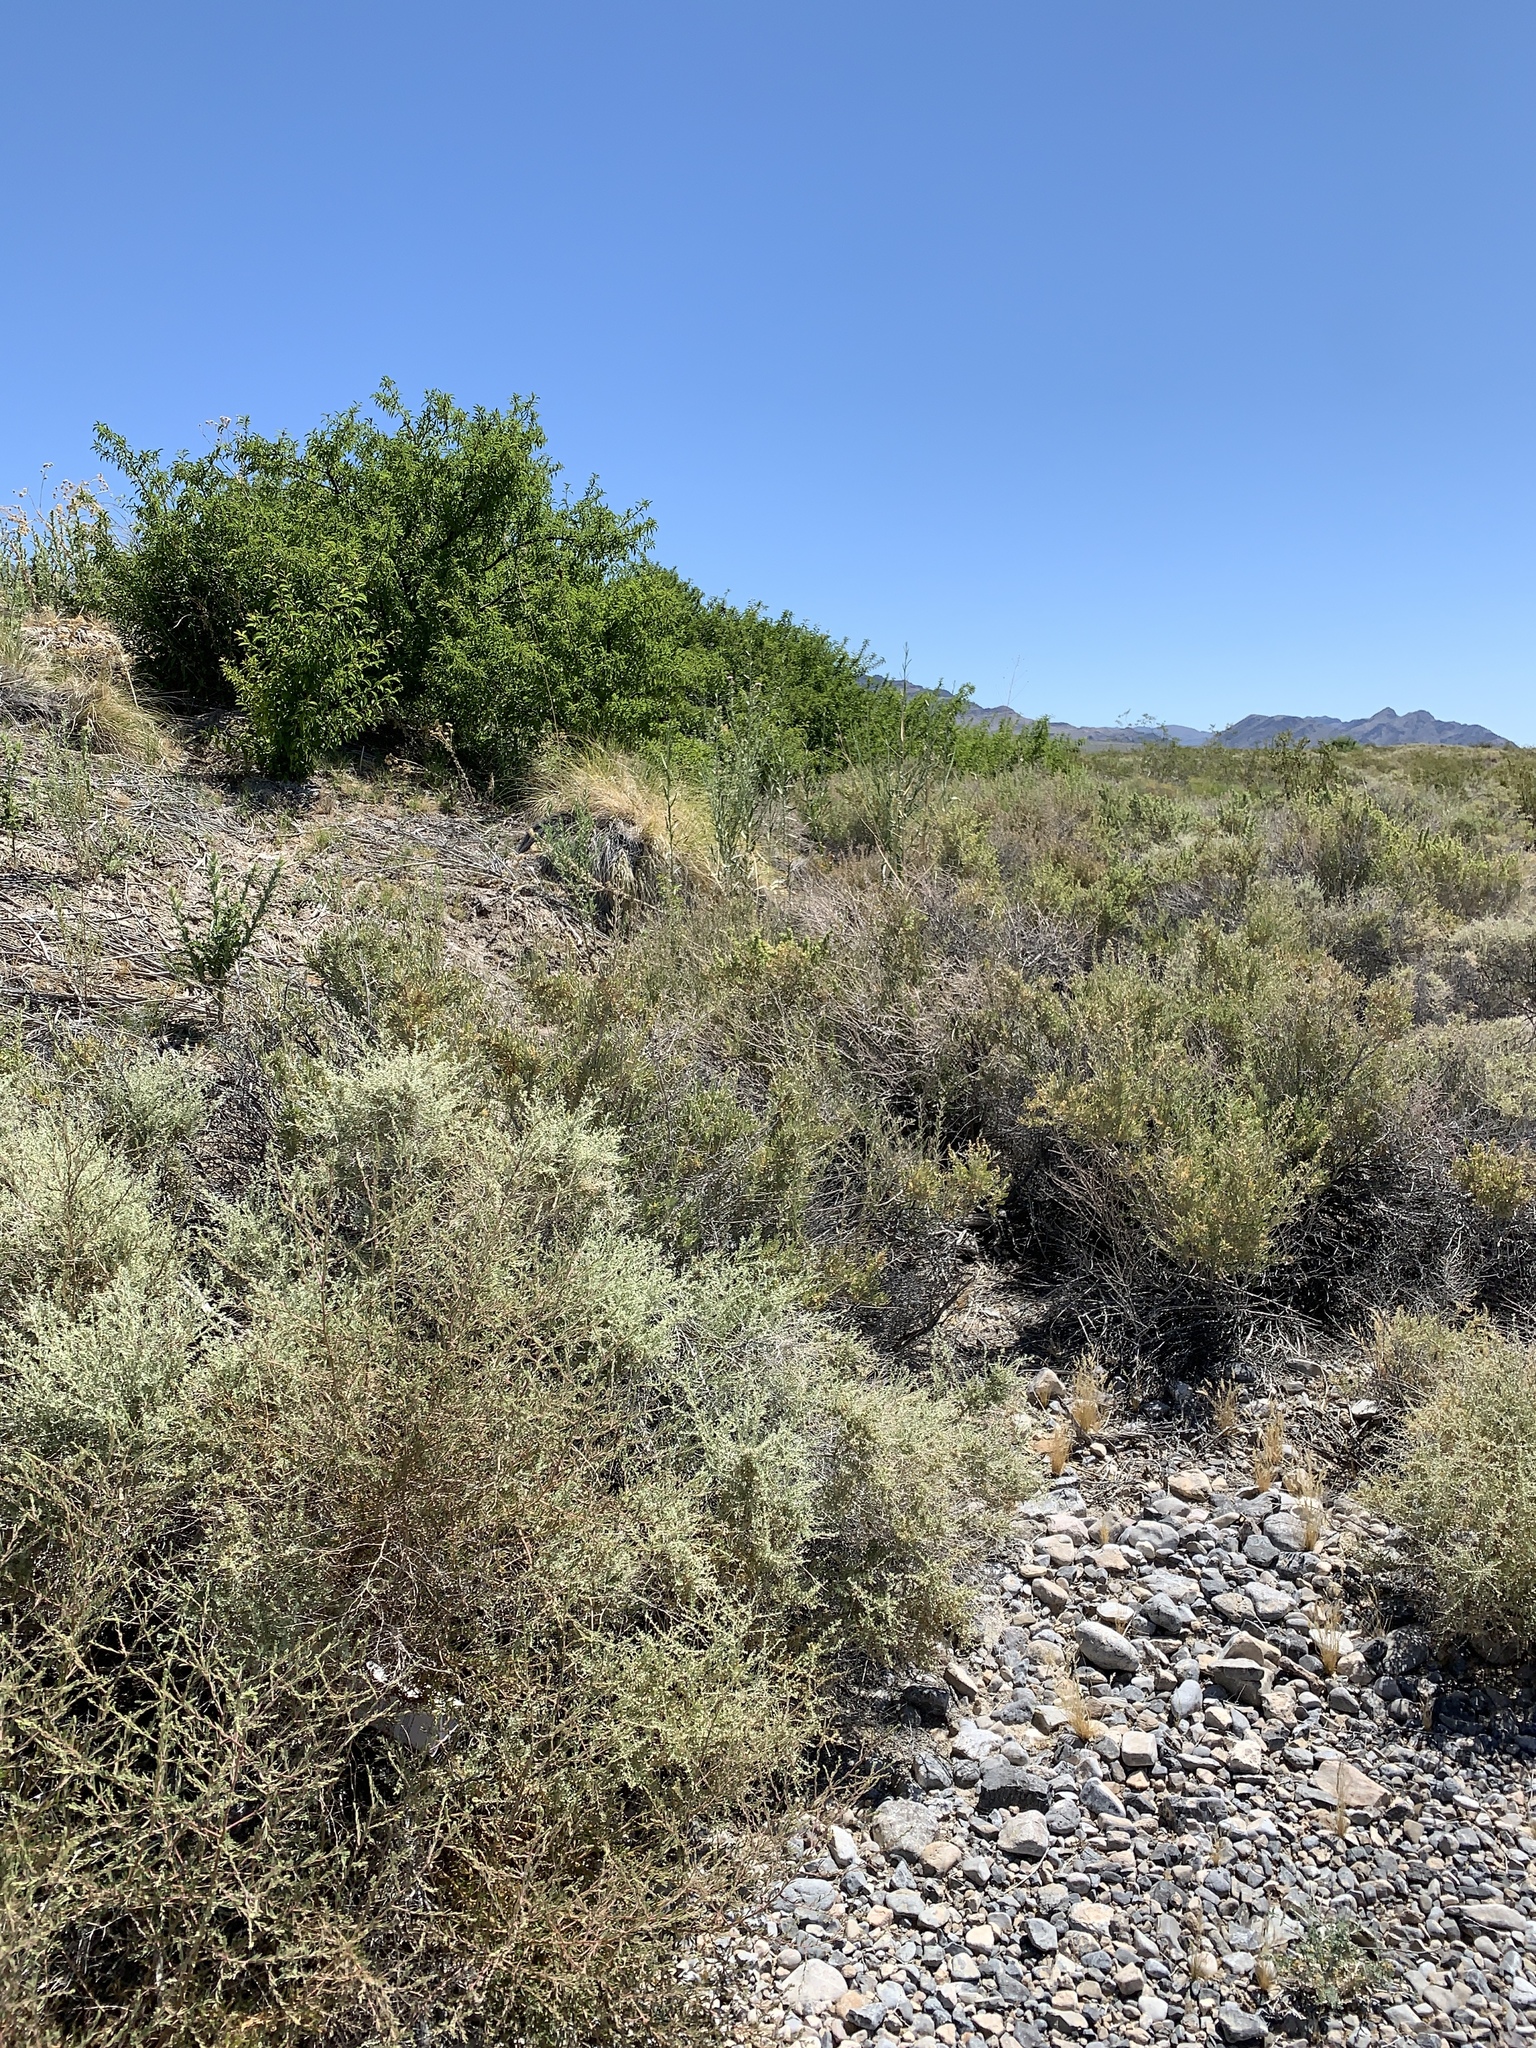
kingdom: Plantae
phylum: Tracheophyta
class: Magnoliopsida
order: Caryophyllales
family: Amaranthaceae
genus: Atriplex
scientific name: Atriplex polycarpa
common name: Desert saltbush
